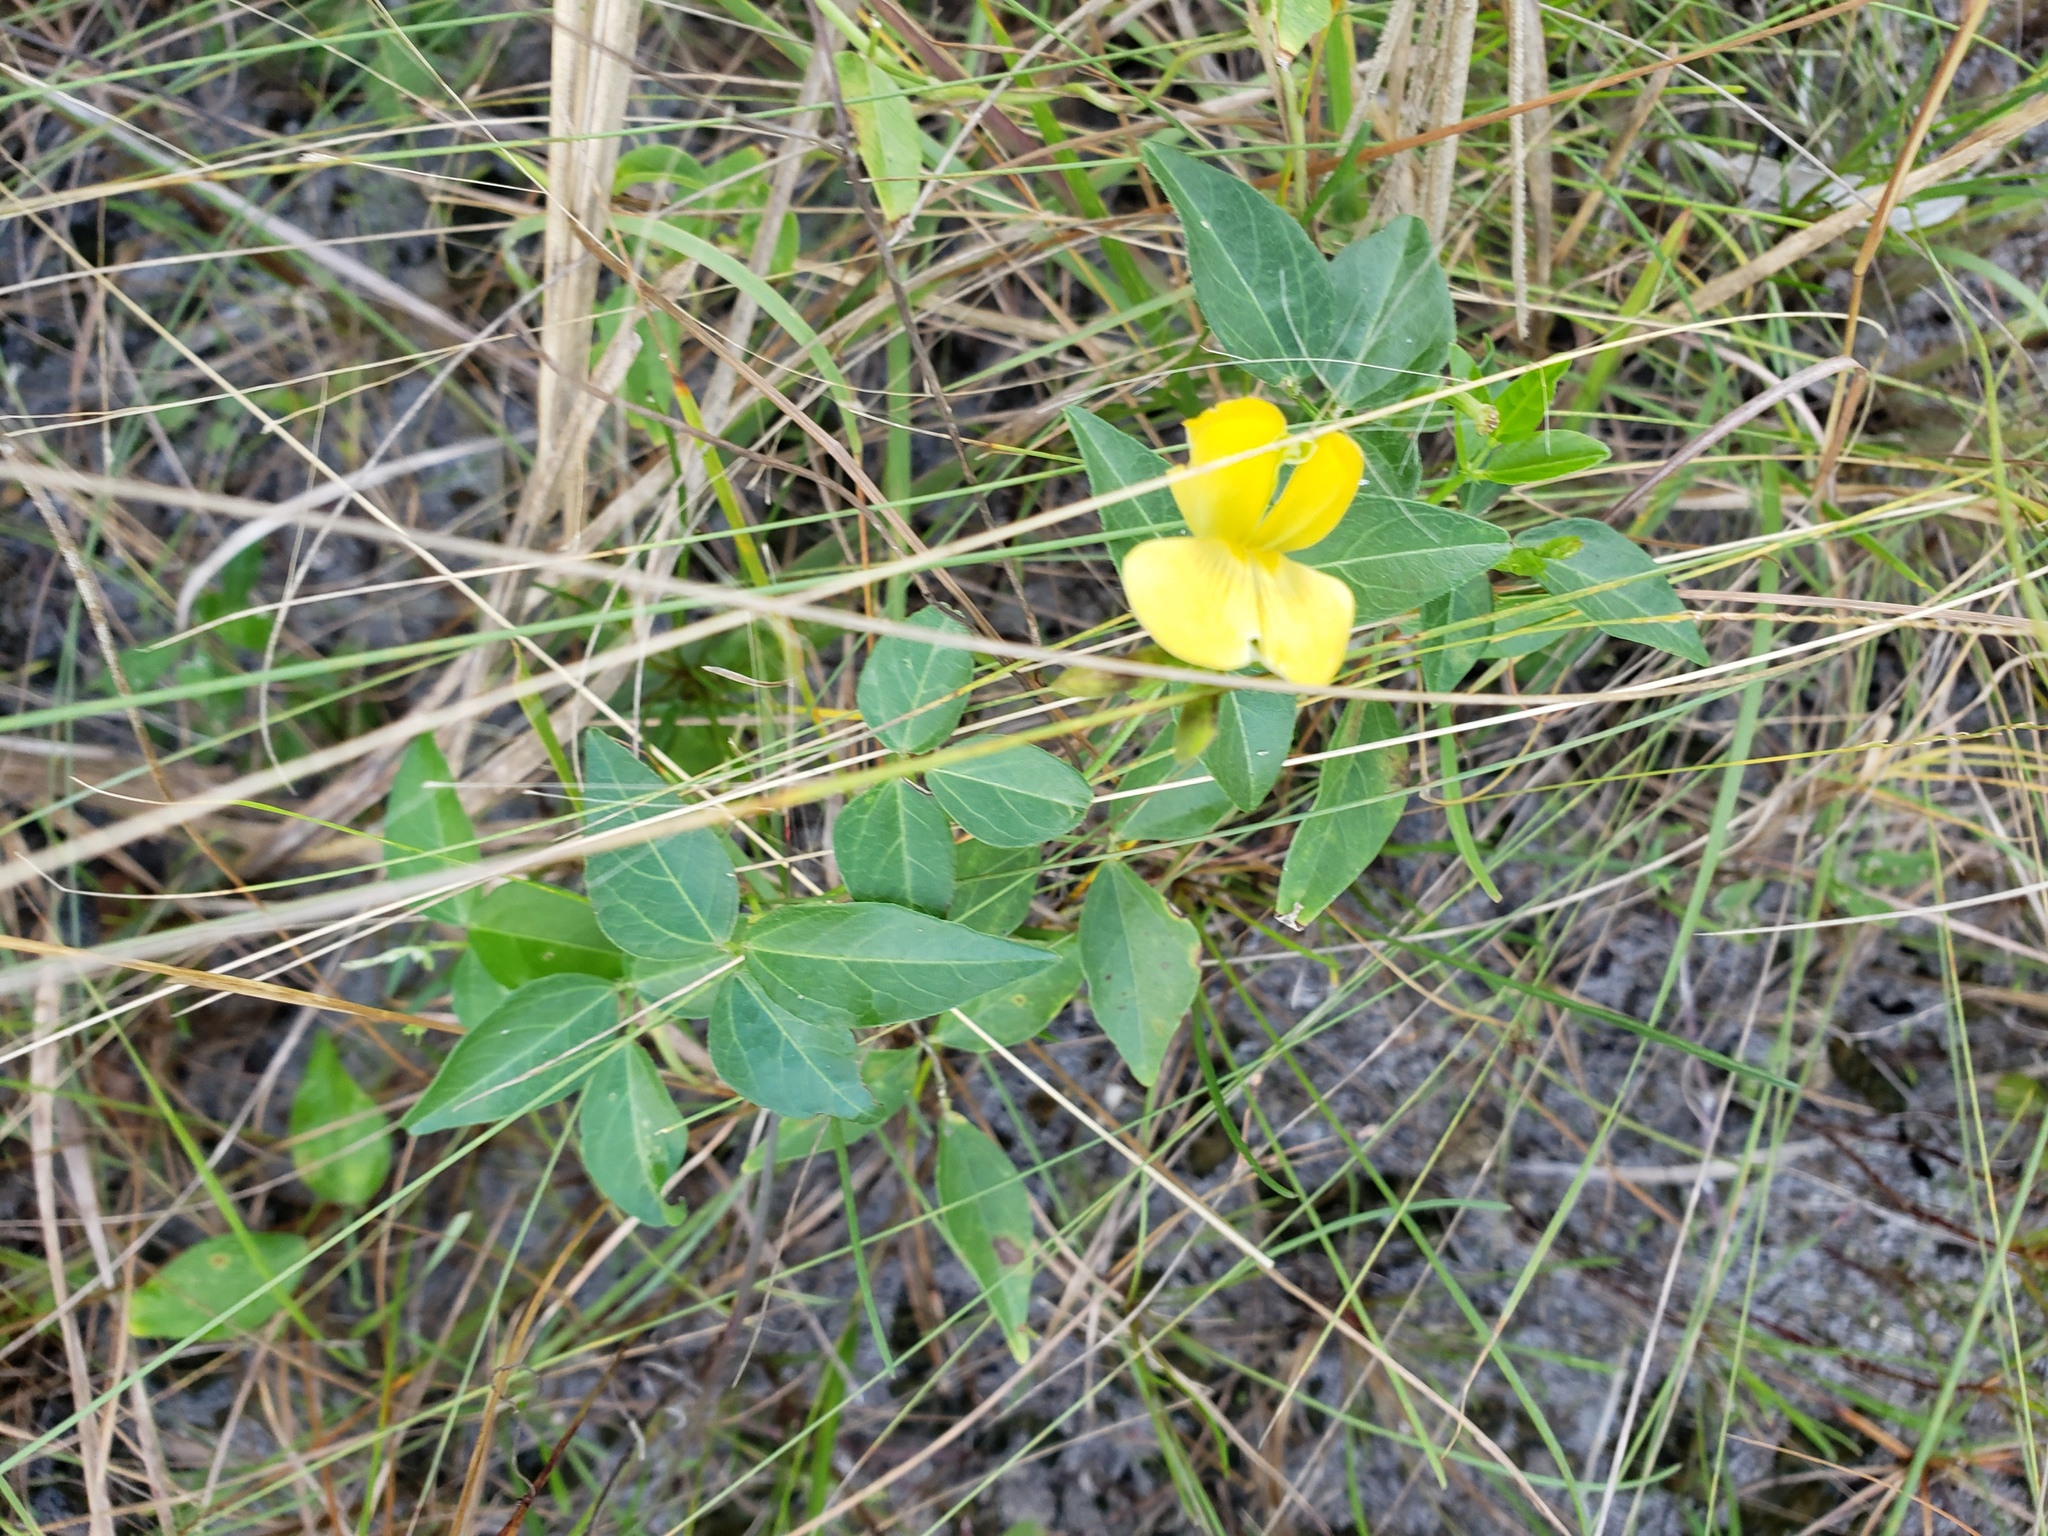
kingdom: Plantae
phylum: Tracheophyta
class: Magnoliopsida
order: Fabales
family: Fabaceae
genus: Vigna
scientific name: Vigna luteola
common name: Hairypod cowpea
